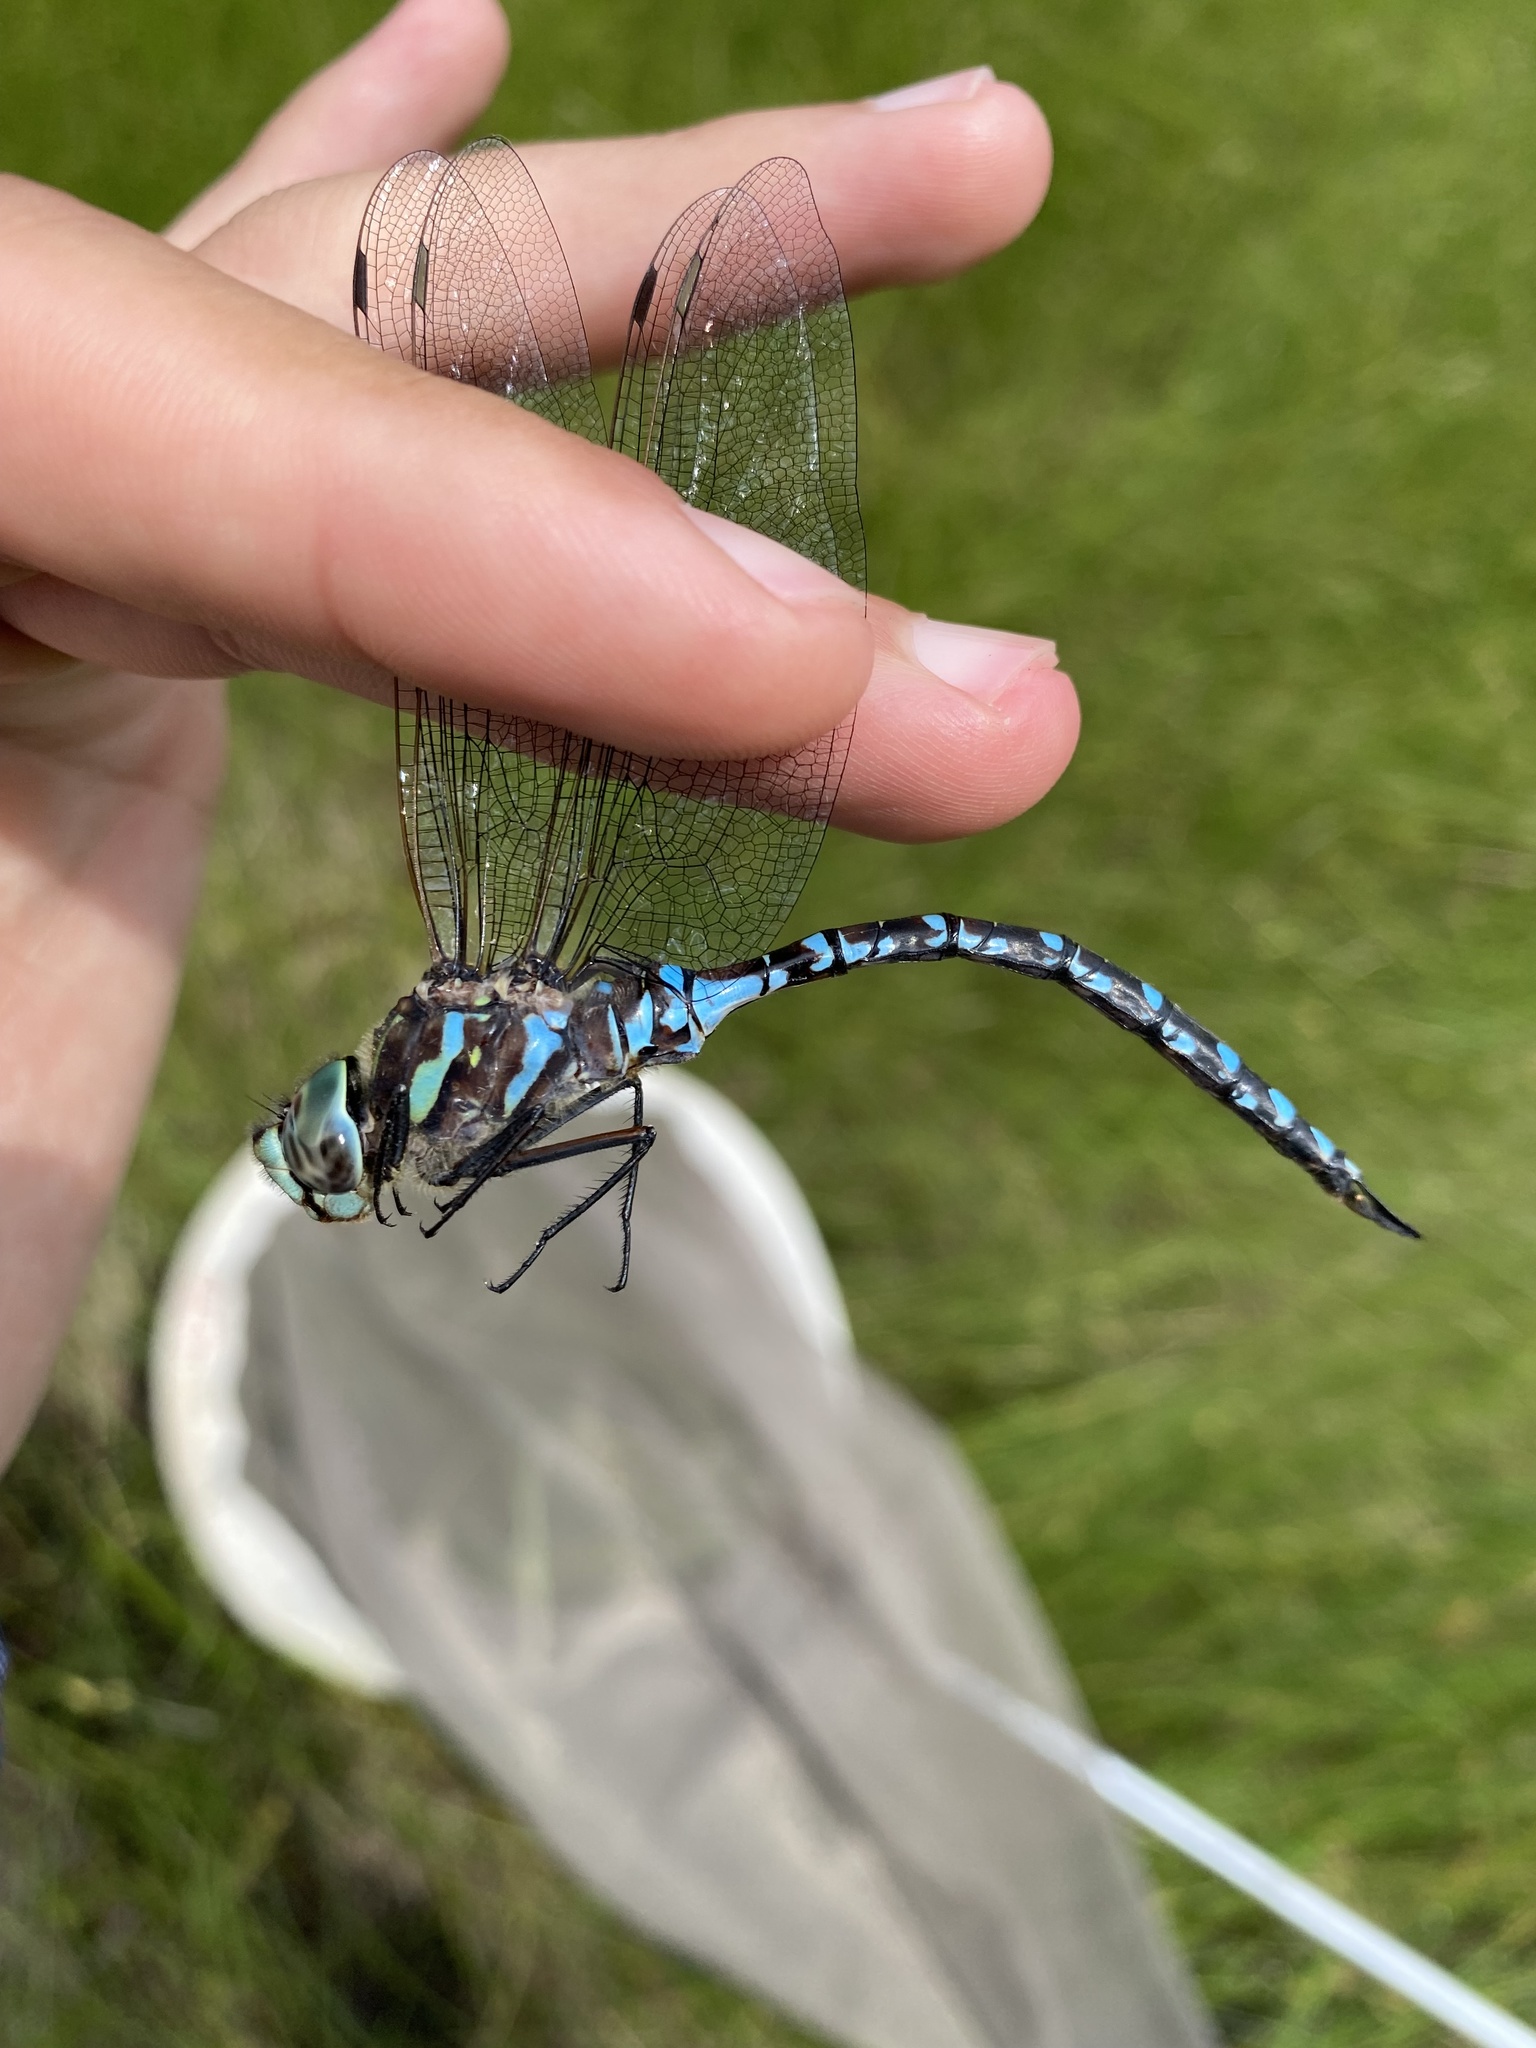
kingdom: Animalia
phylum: Arthropoda
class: Insecta
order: Odonata
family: Aeshnidae
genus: Aeshna
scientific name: Aeshna canadensis
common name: Canada darner
